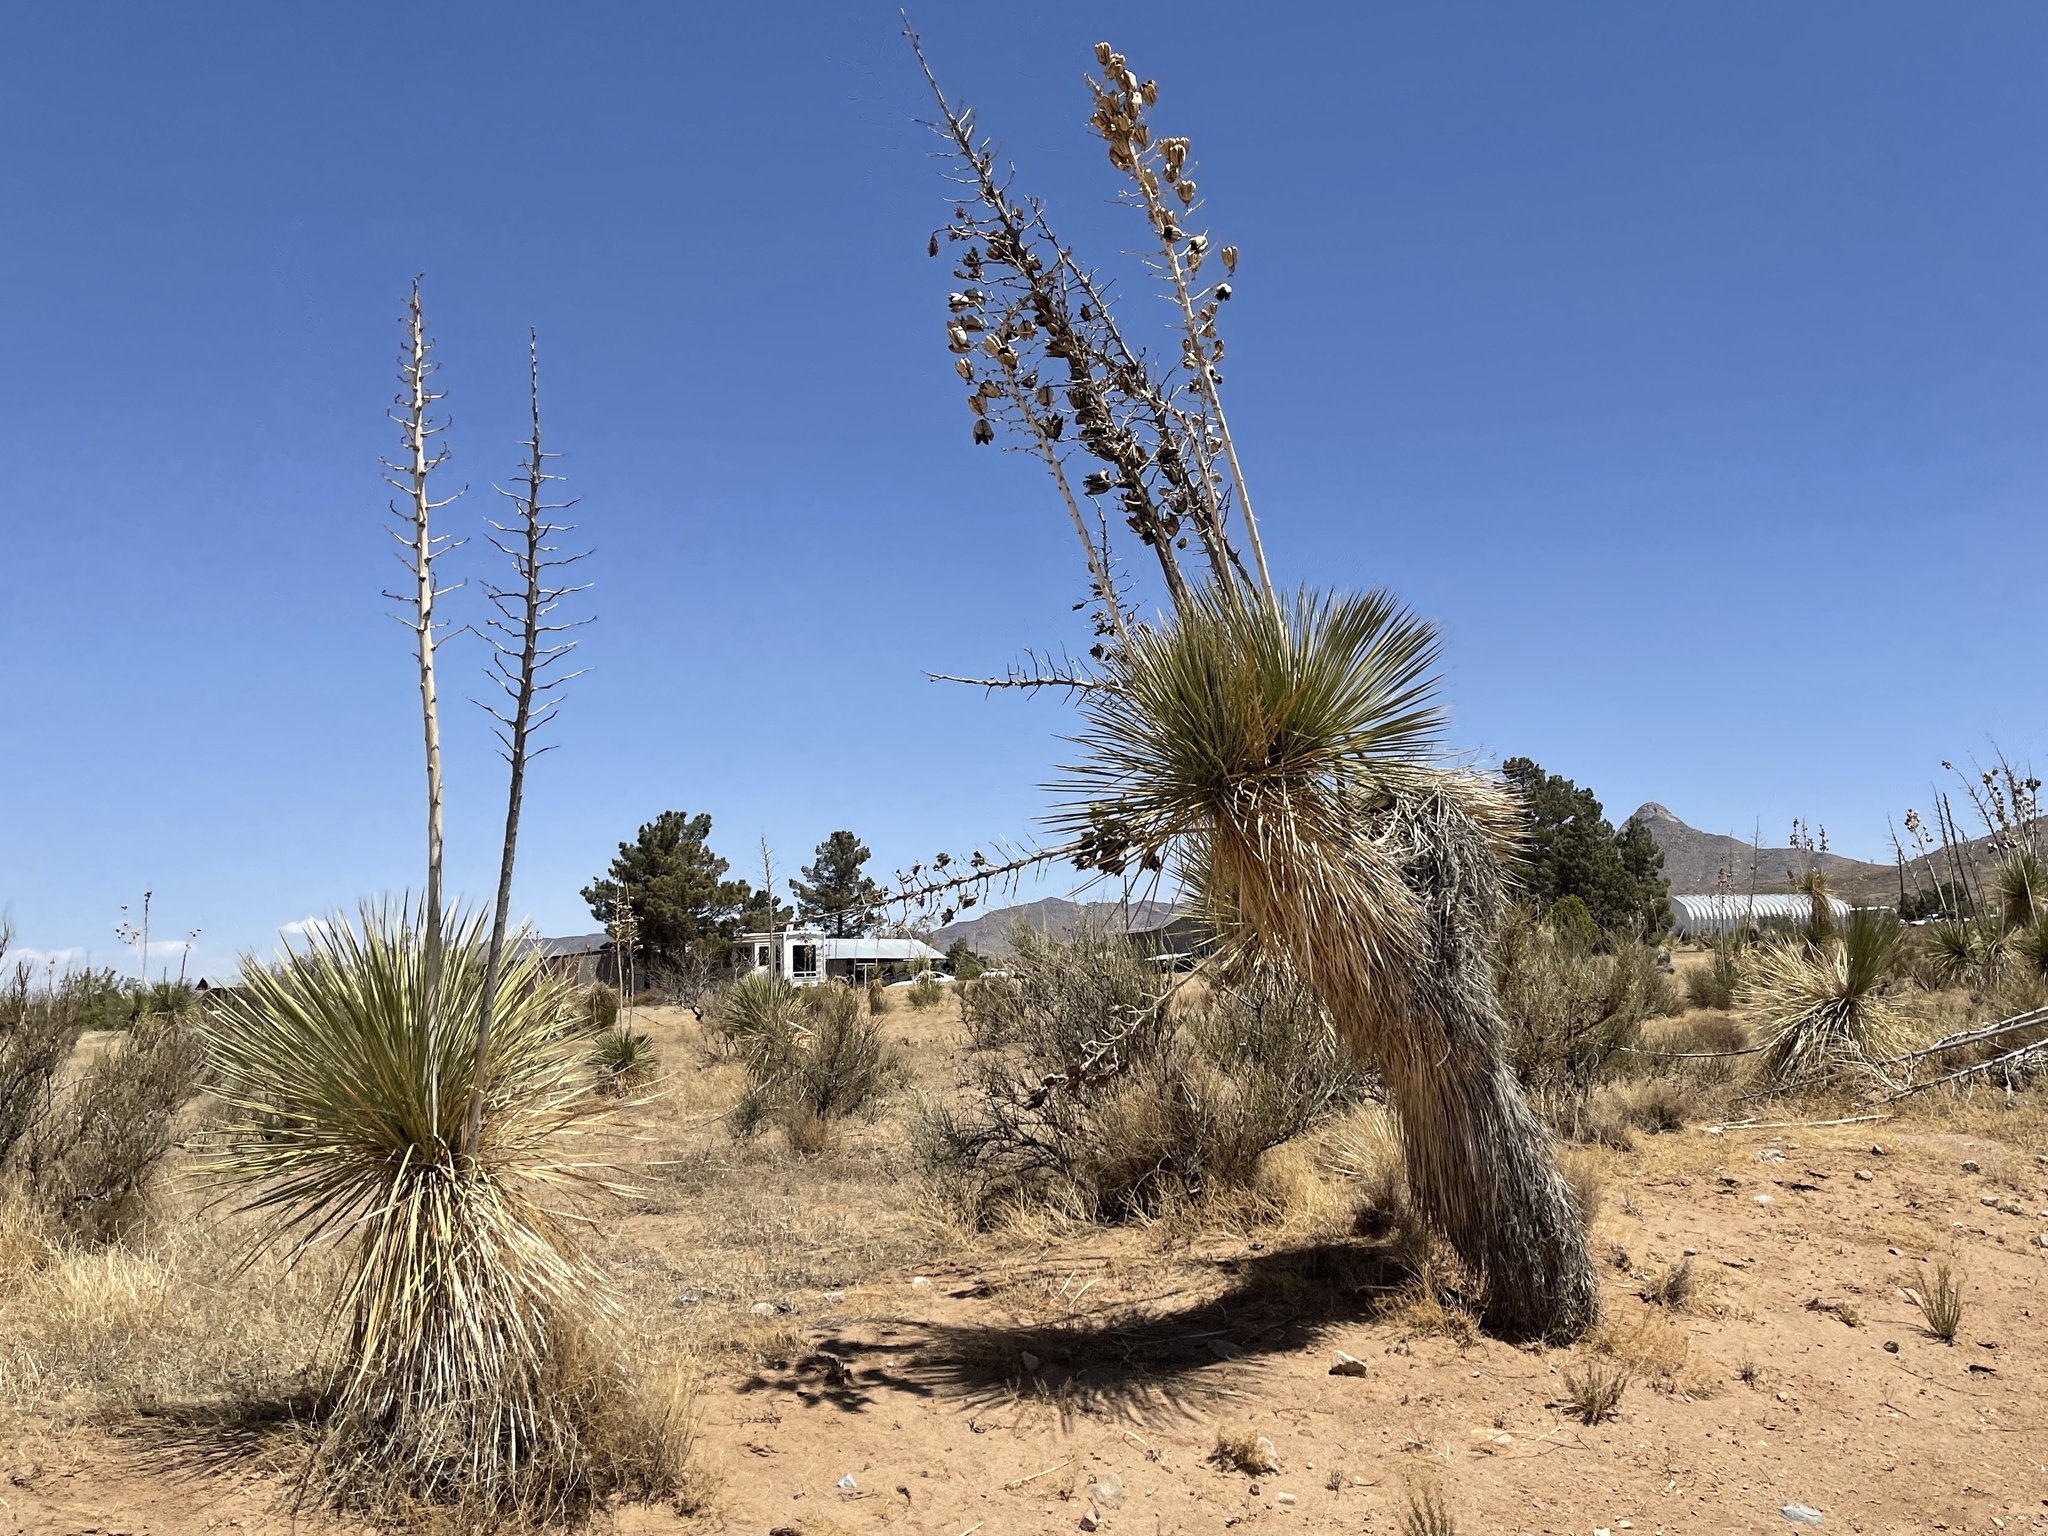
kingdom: Plantae
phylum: Tracheophyta
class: Liliopsida
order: Asparagales
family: Asparagaceae
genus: Yucca
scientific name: Yucca elata
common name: Palmella
